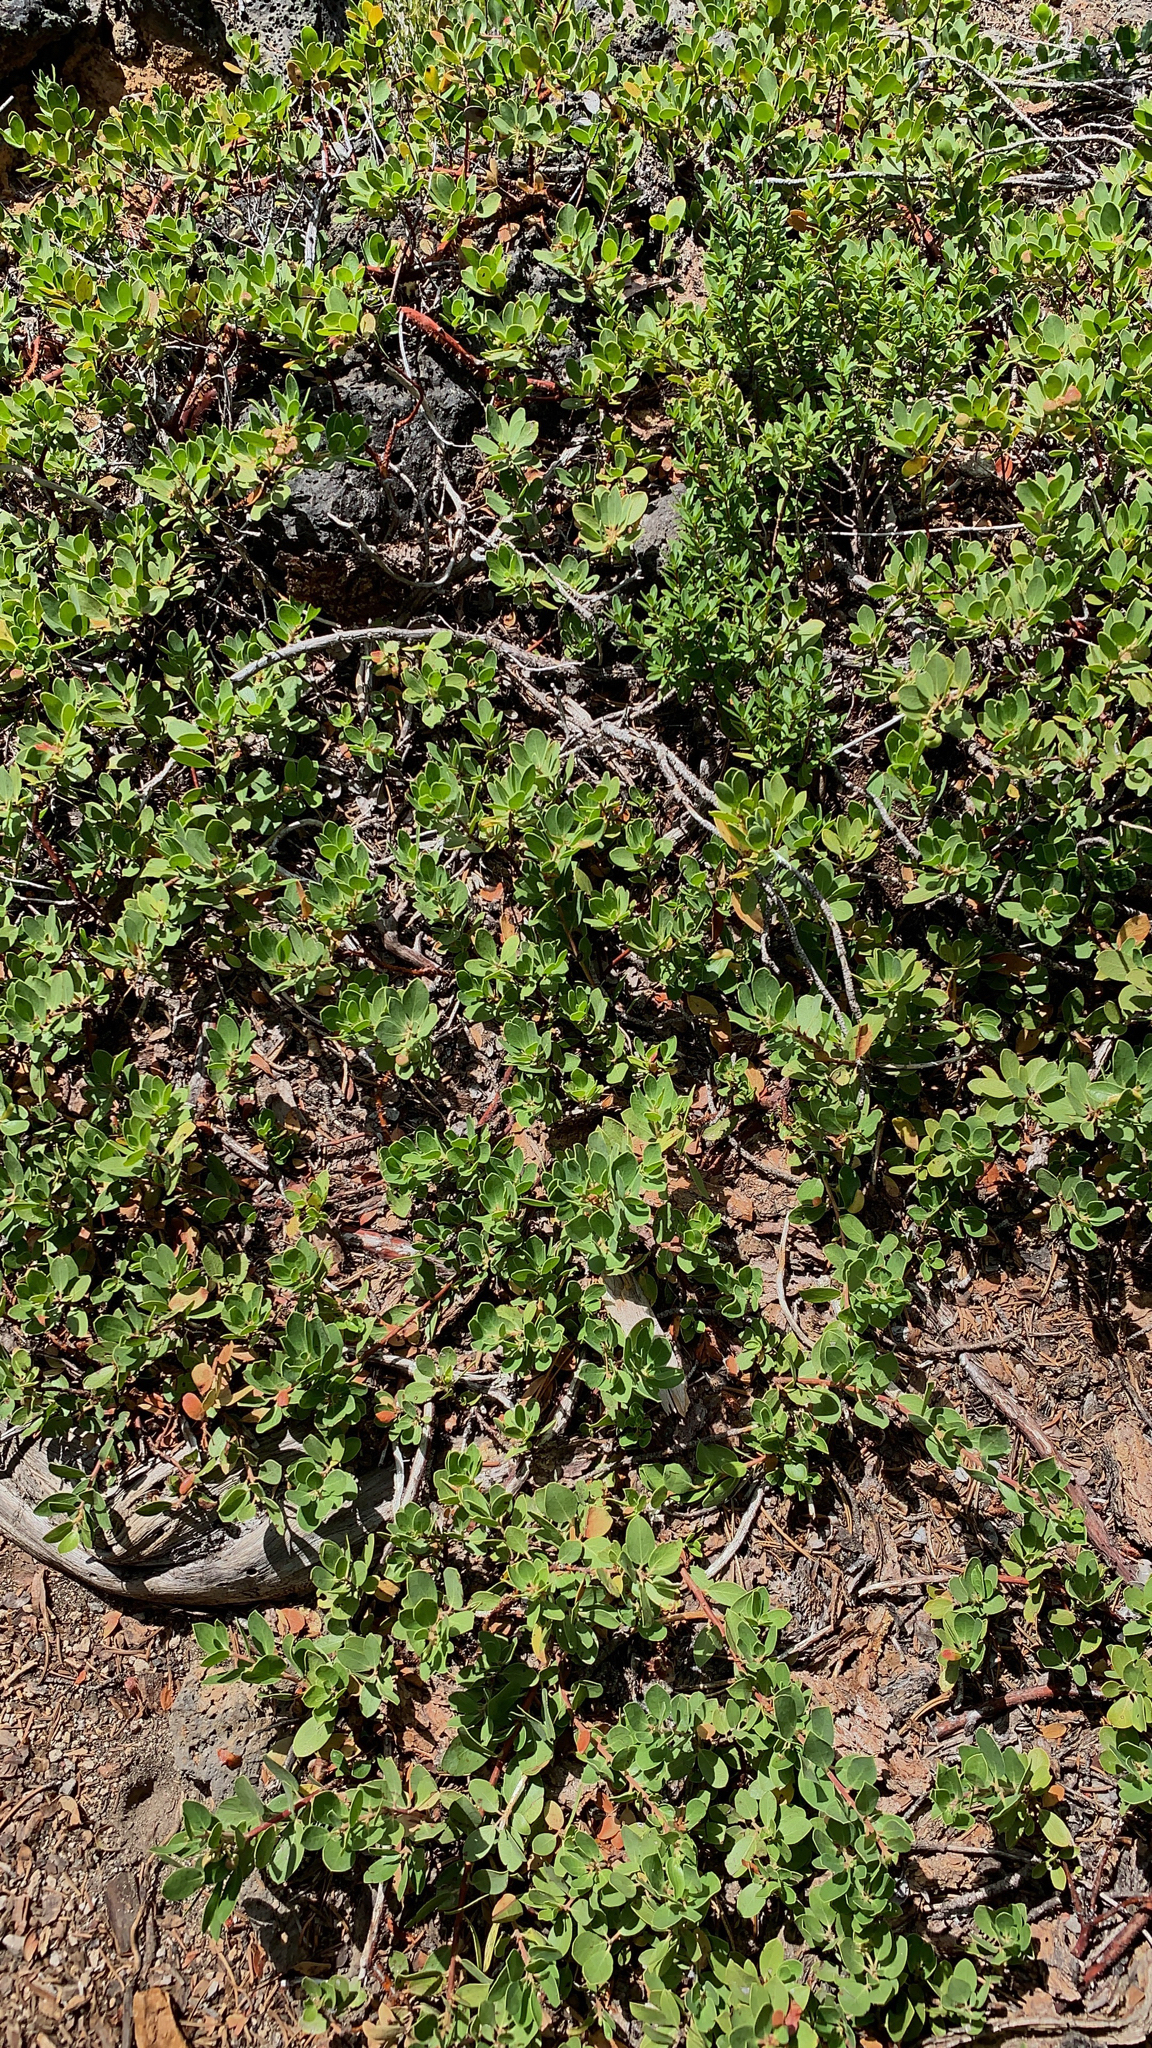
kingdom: Plantae
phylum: Tracheophyta
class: Magnoliopsida
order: Ericales
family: Ericaceae
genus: Arctostaphylos
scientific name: Arctostaphylos nevadensis
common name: Pinemat manzanita
